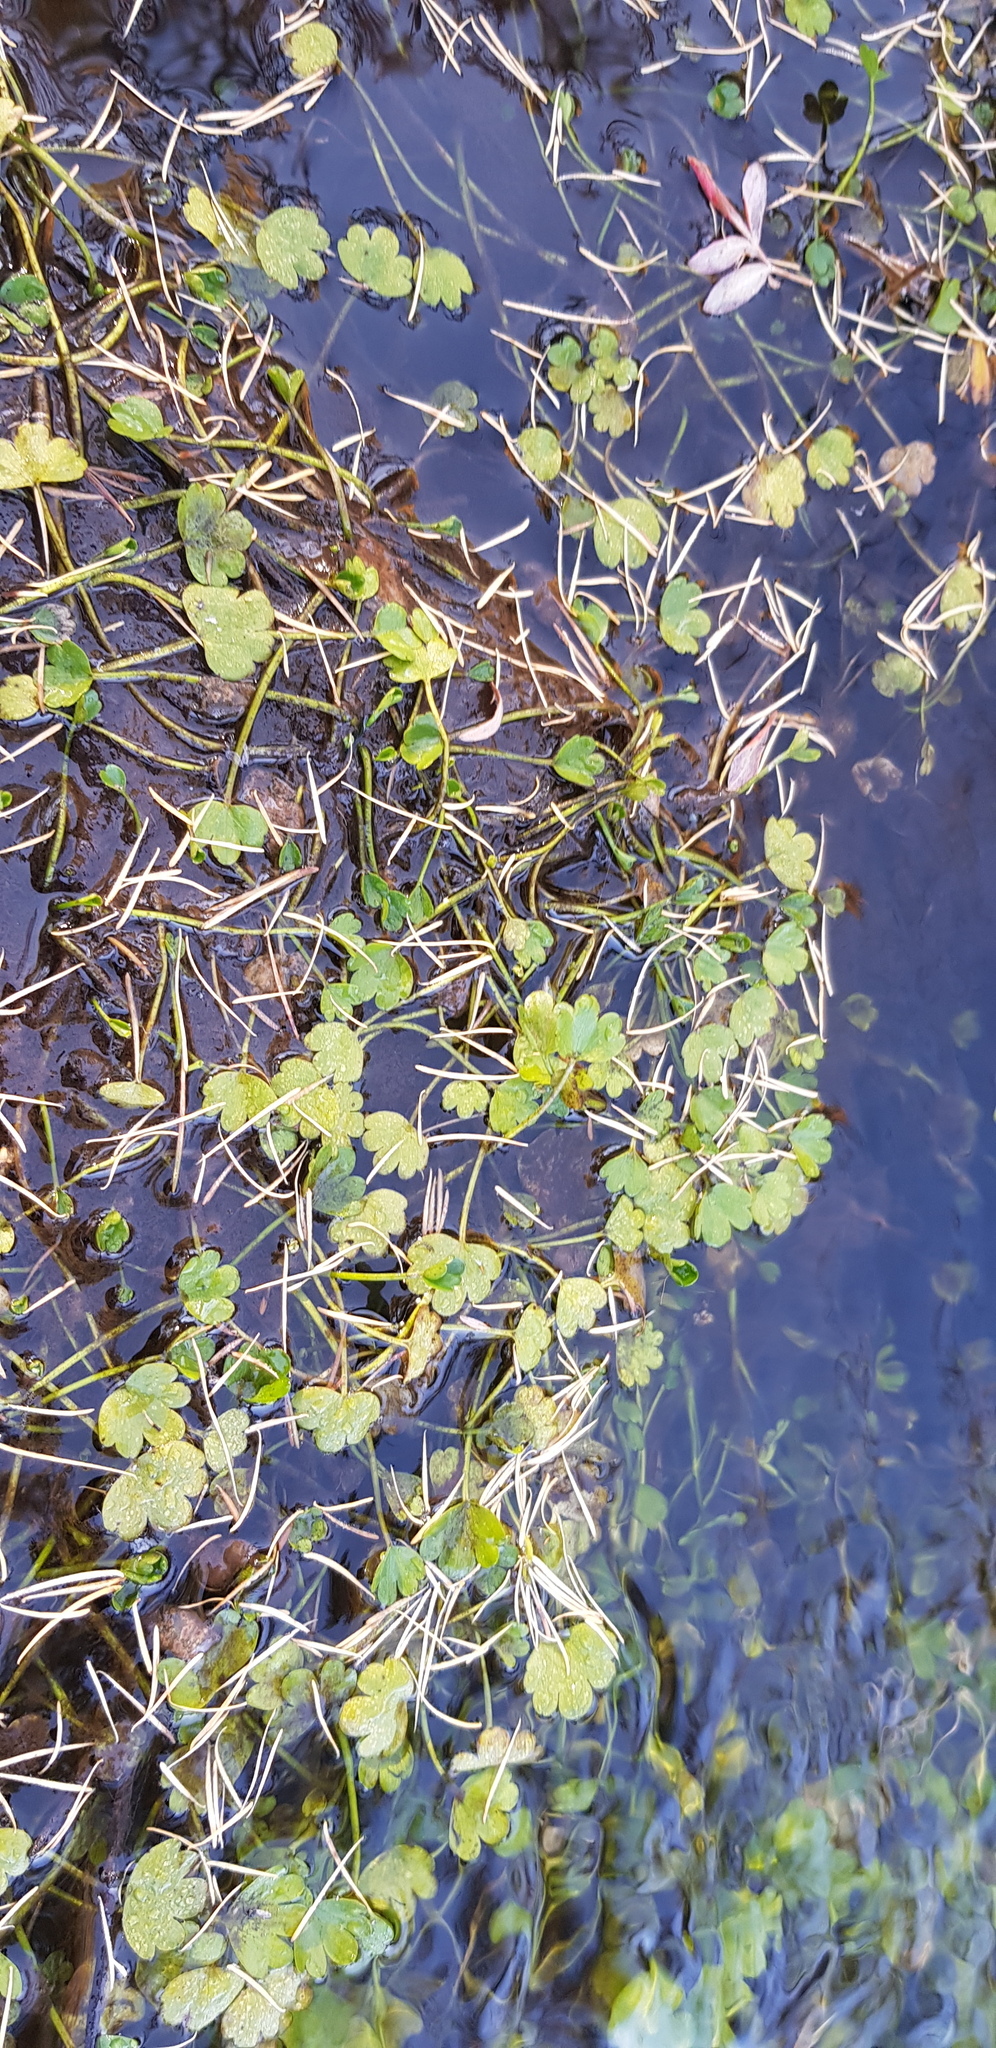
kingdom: Plantae
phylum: Tracheophyta
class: Magnoliopsida
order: Ranunculales
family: Ranunculaceae
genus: Ranunculus
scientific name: Ranunculus natans
